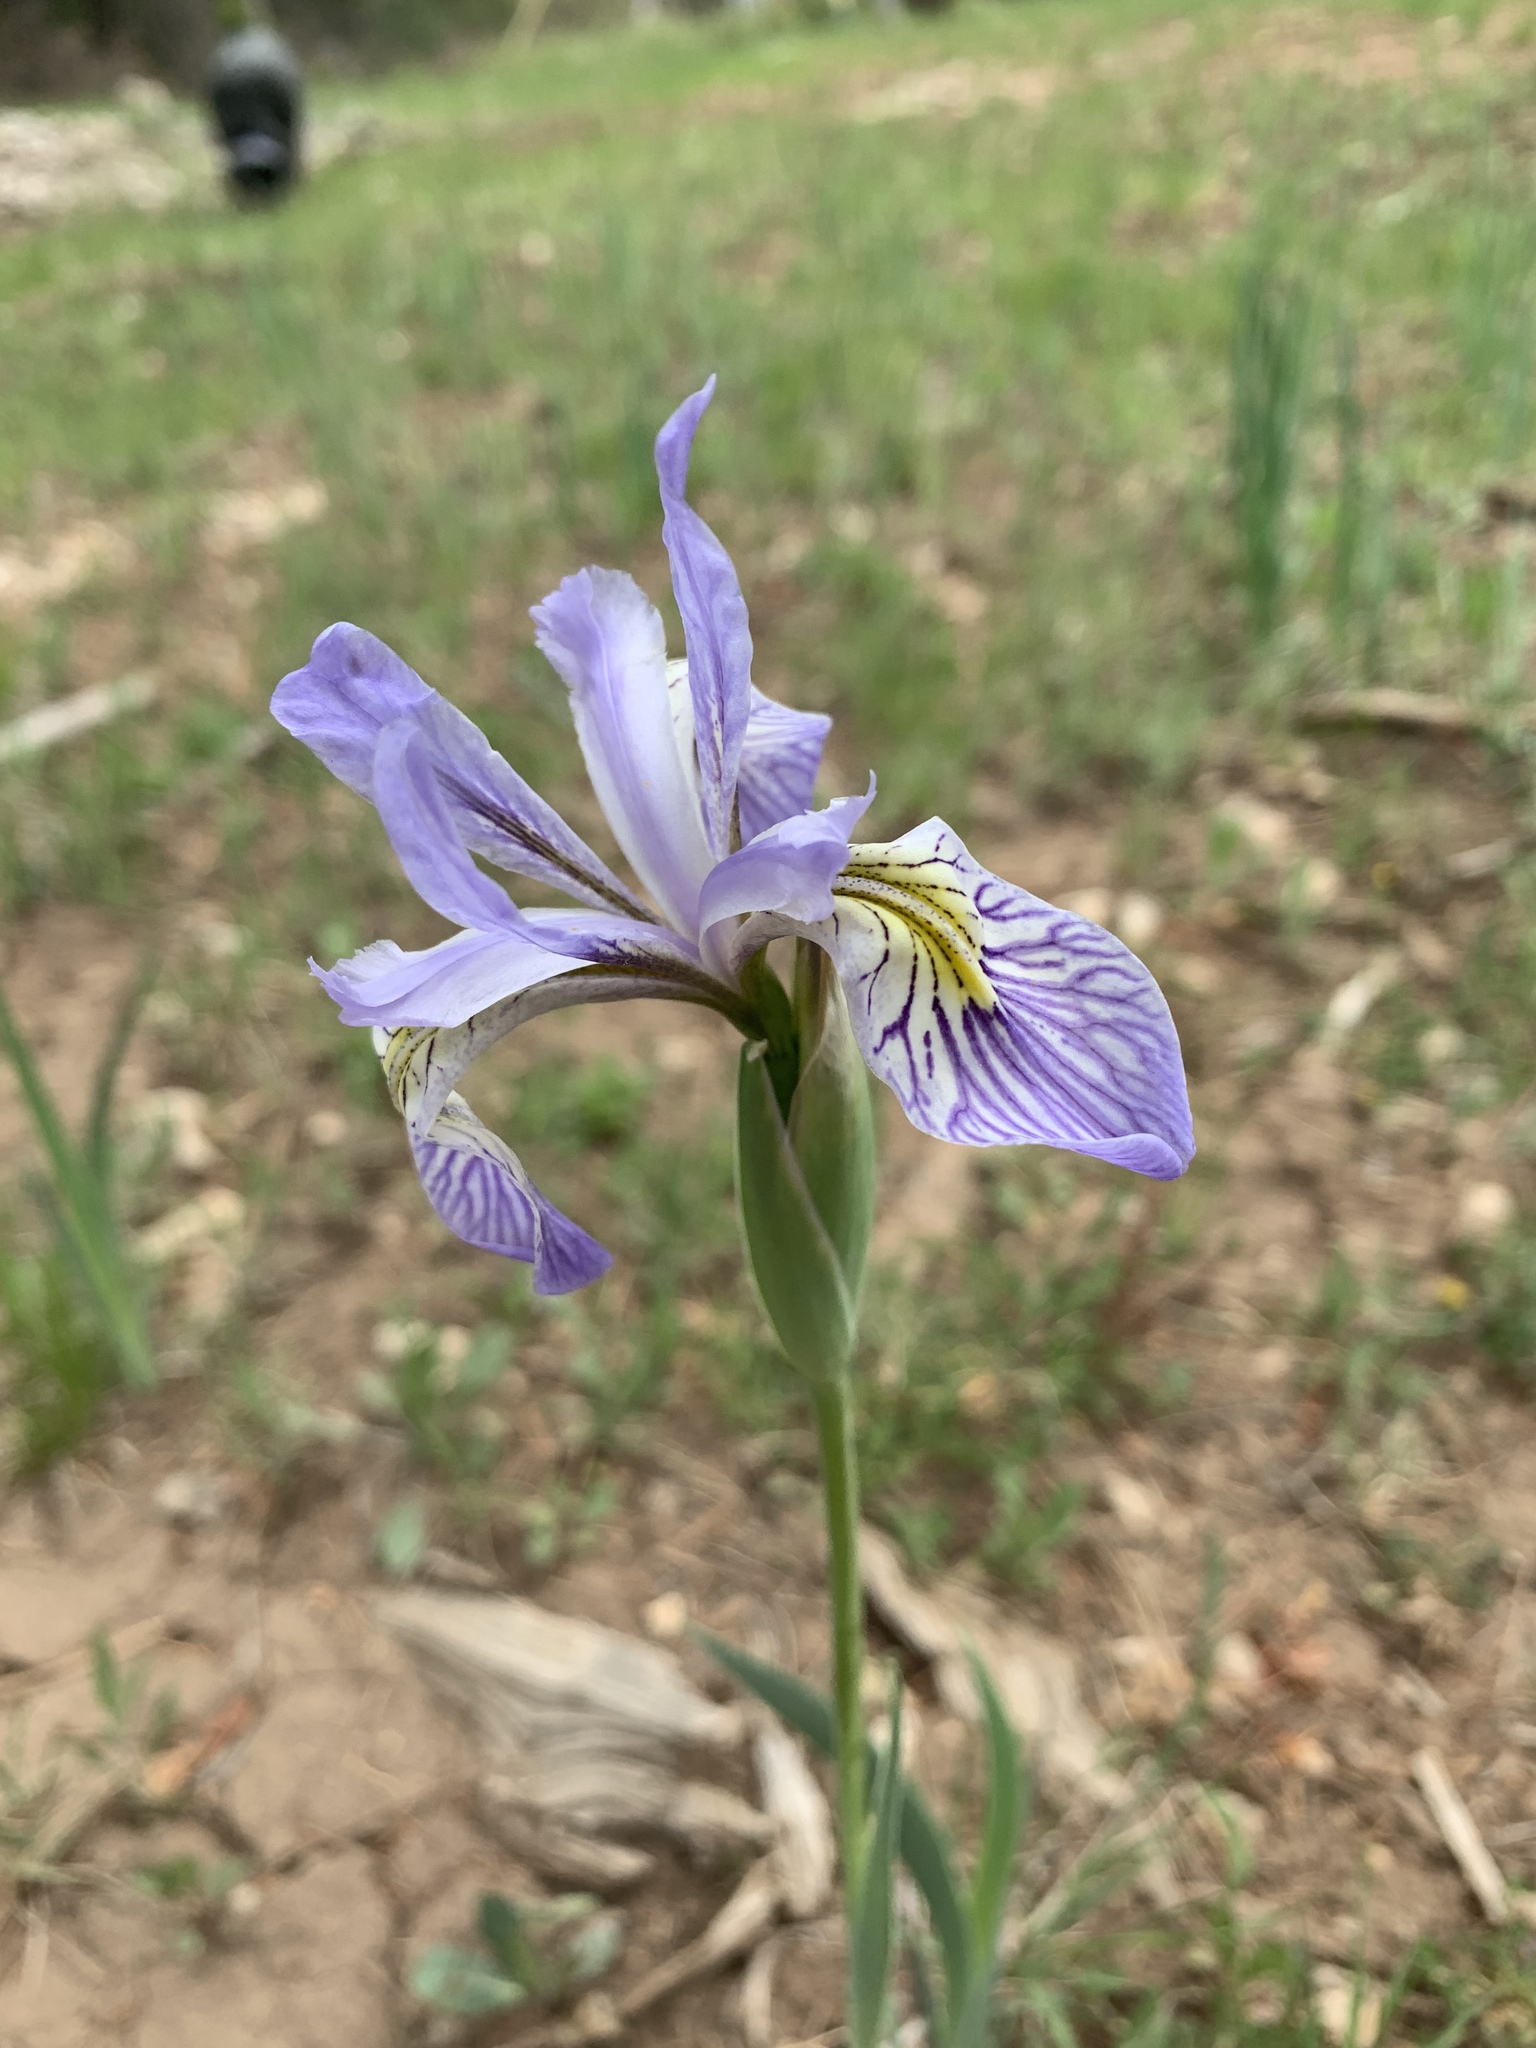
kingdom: Plantae
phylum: Tracheophyta
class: Liliopsida
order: Asparagales
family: Iridaceae
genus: Iris
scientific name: Iris missouriensis
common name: Rocky mountain iris
